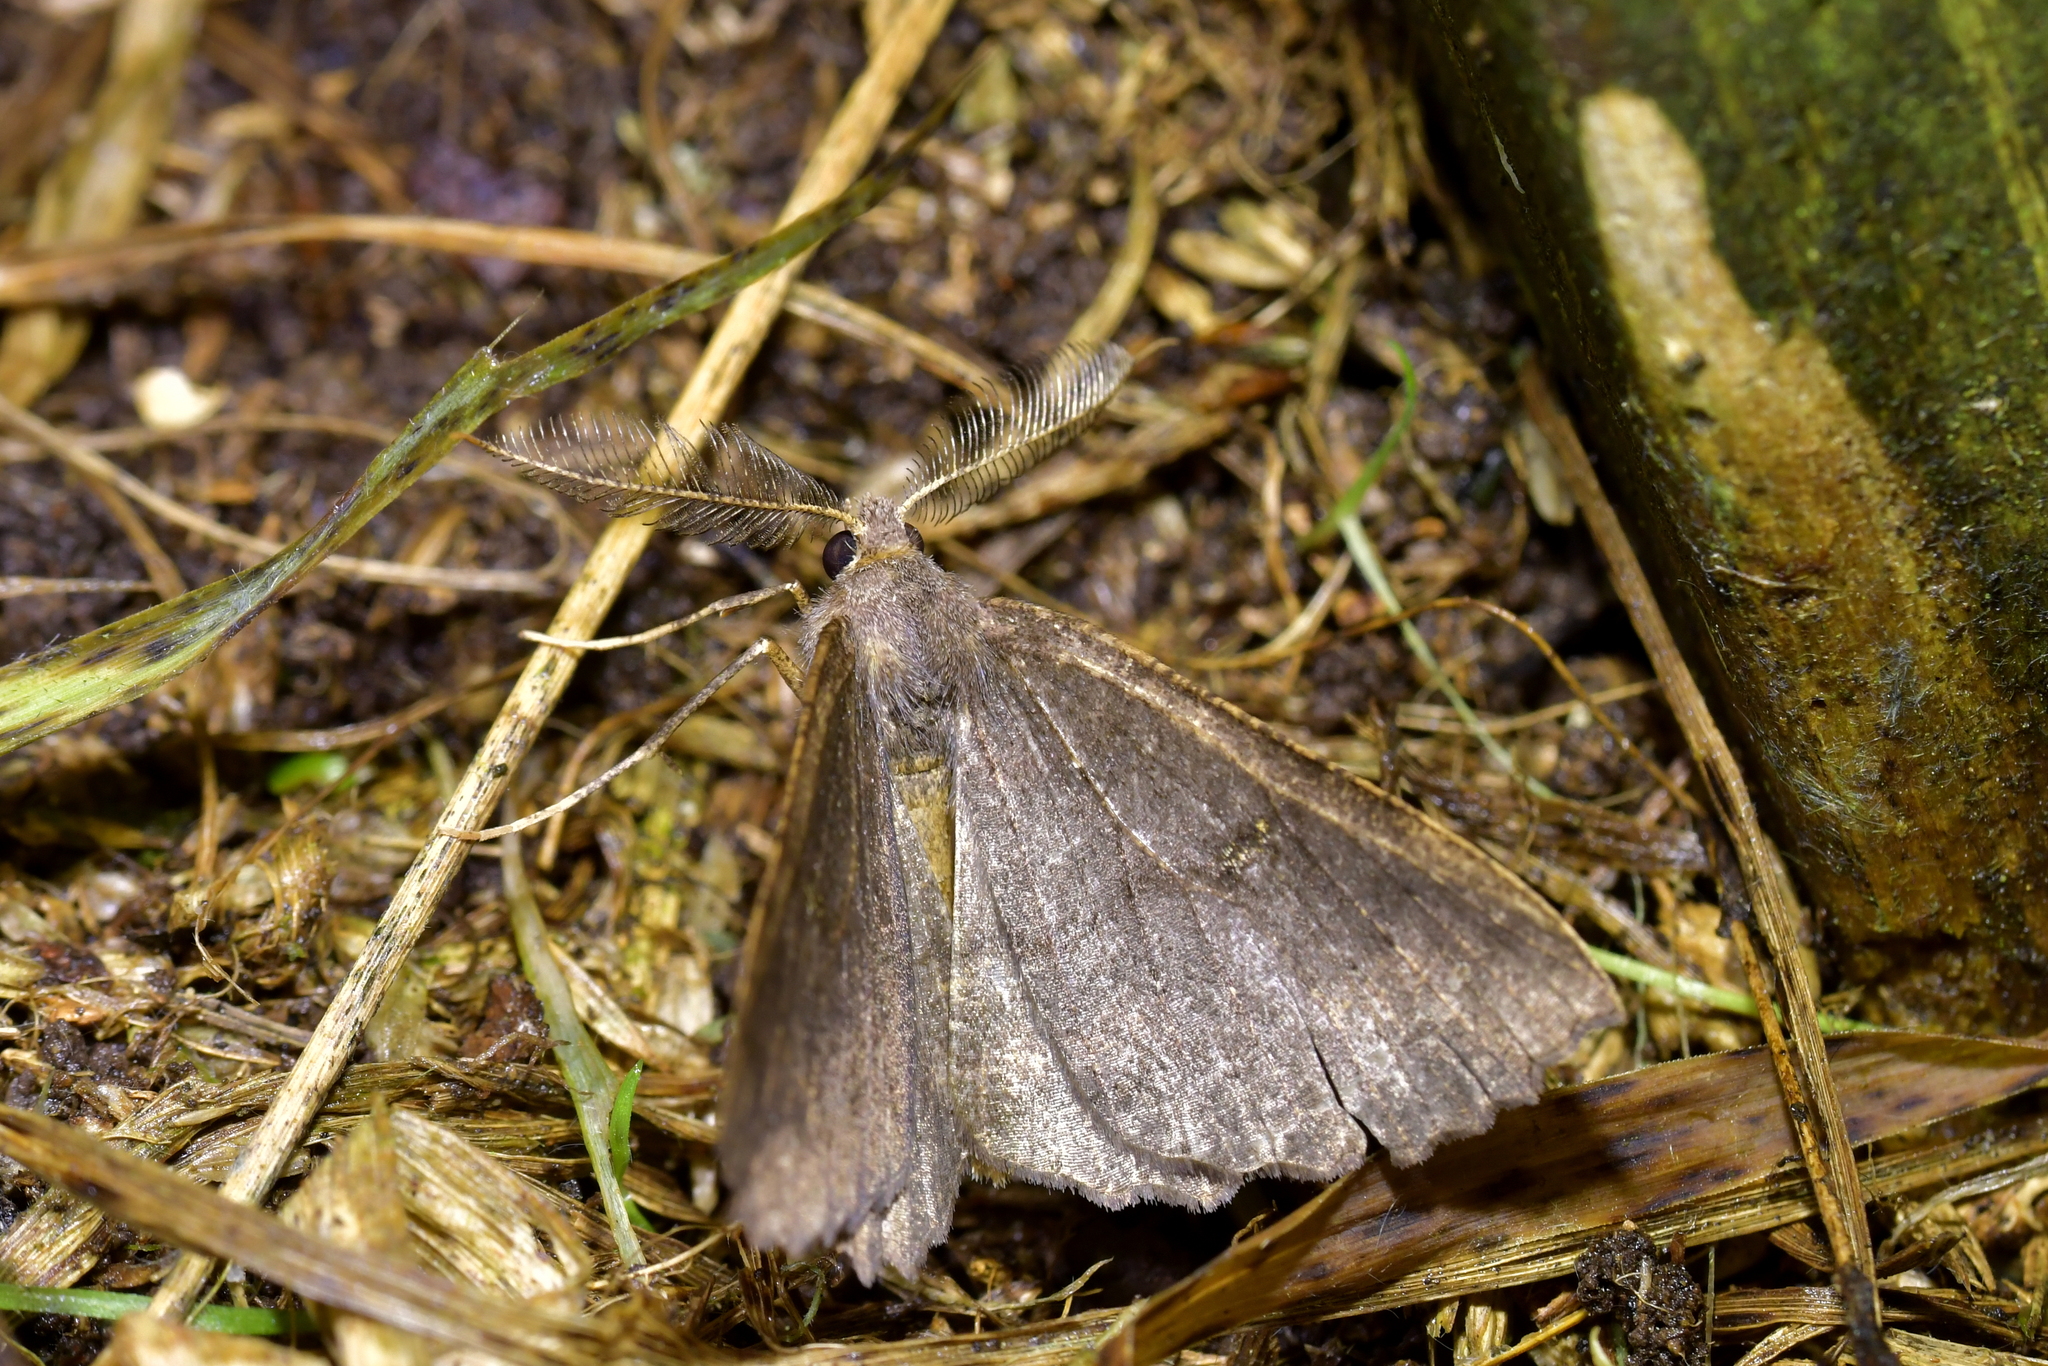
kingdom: Animalia
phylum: Arthropoda
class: Insecta
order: Lepidoptera
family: Geometridae
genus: Cleora
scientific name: Cleora scriptaria
